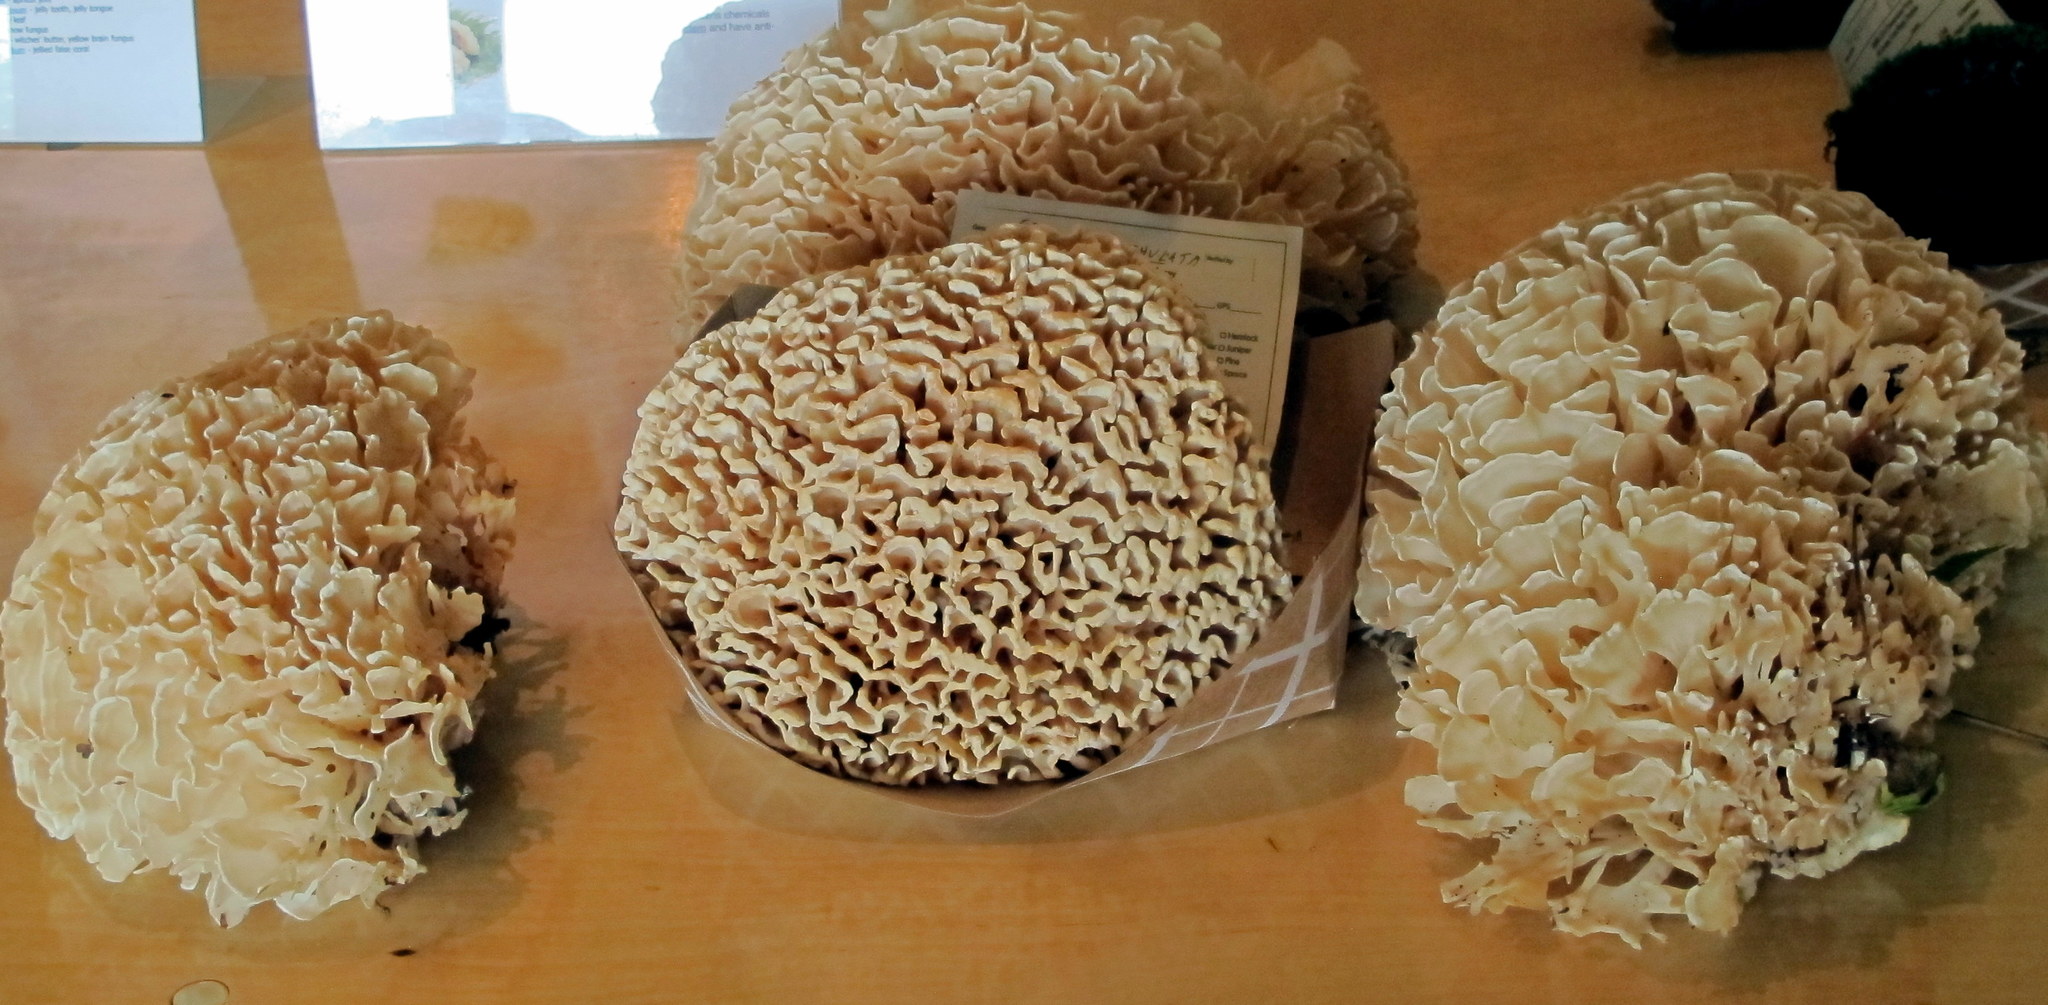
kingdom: Fungi
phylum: Basidiomycota
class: Agaricomycetes
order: Polyporales
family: Sparassidaceae
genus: Sparassis
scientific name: Sparassis spathulata
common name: Eastern cauliflower mushroom
